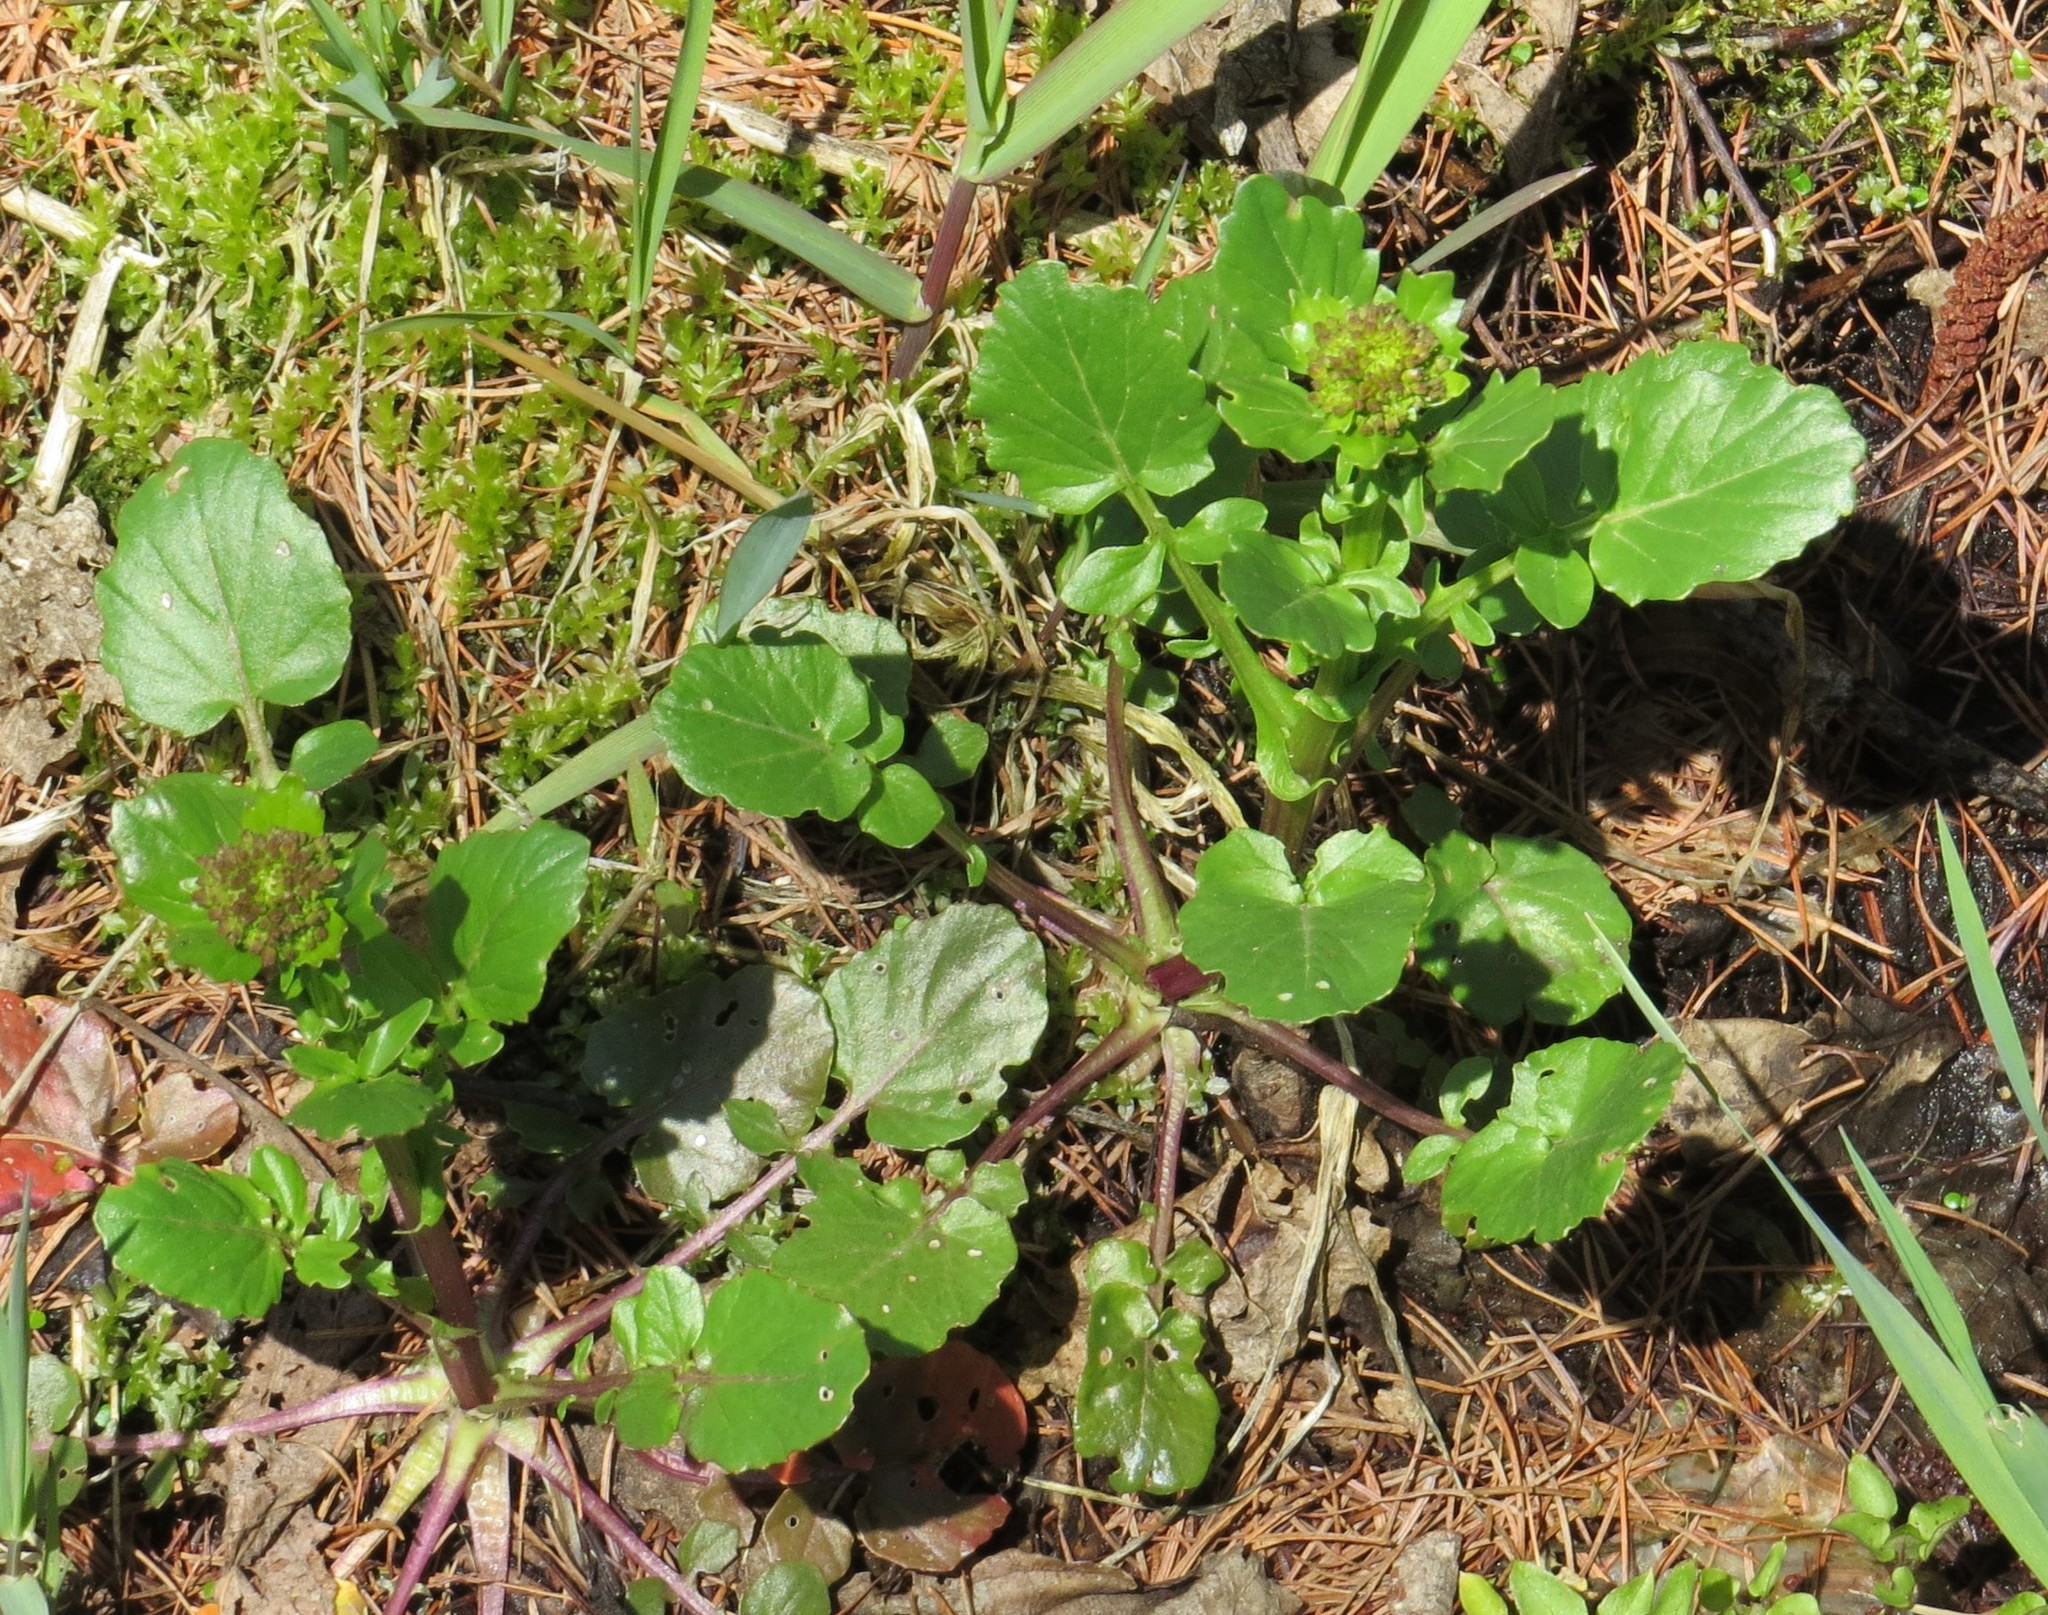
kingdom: Plantae
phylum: Tracheophyta
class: Magnoliopsida
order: Brassicales
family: Brassicaceae
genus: Barbarea
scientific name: Barbarea vulgaris
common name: Cressy-greens
